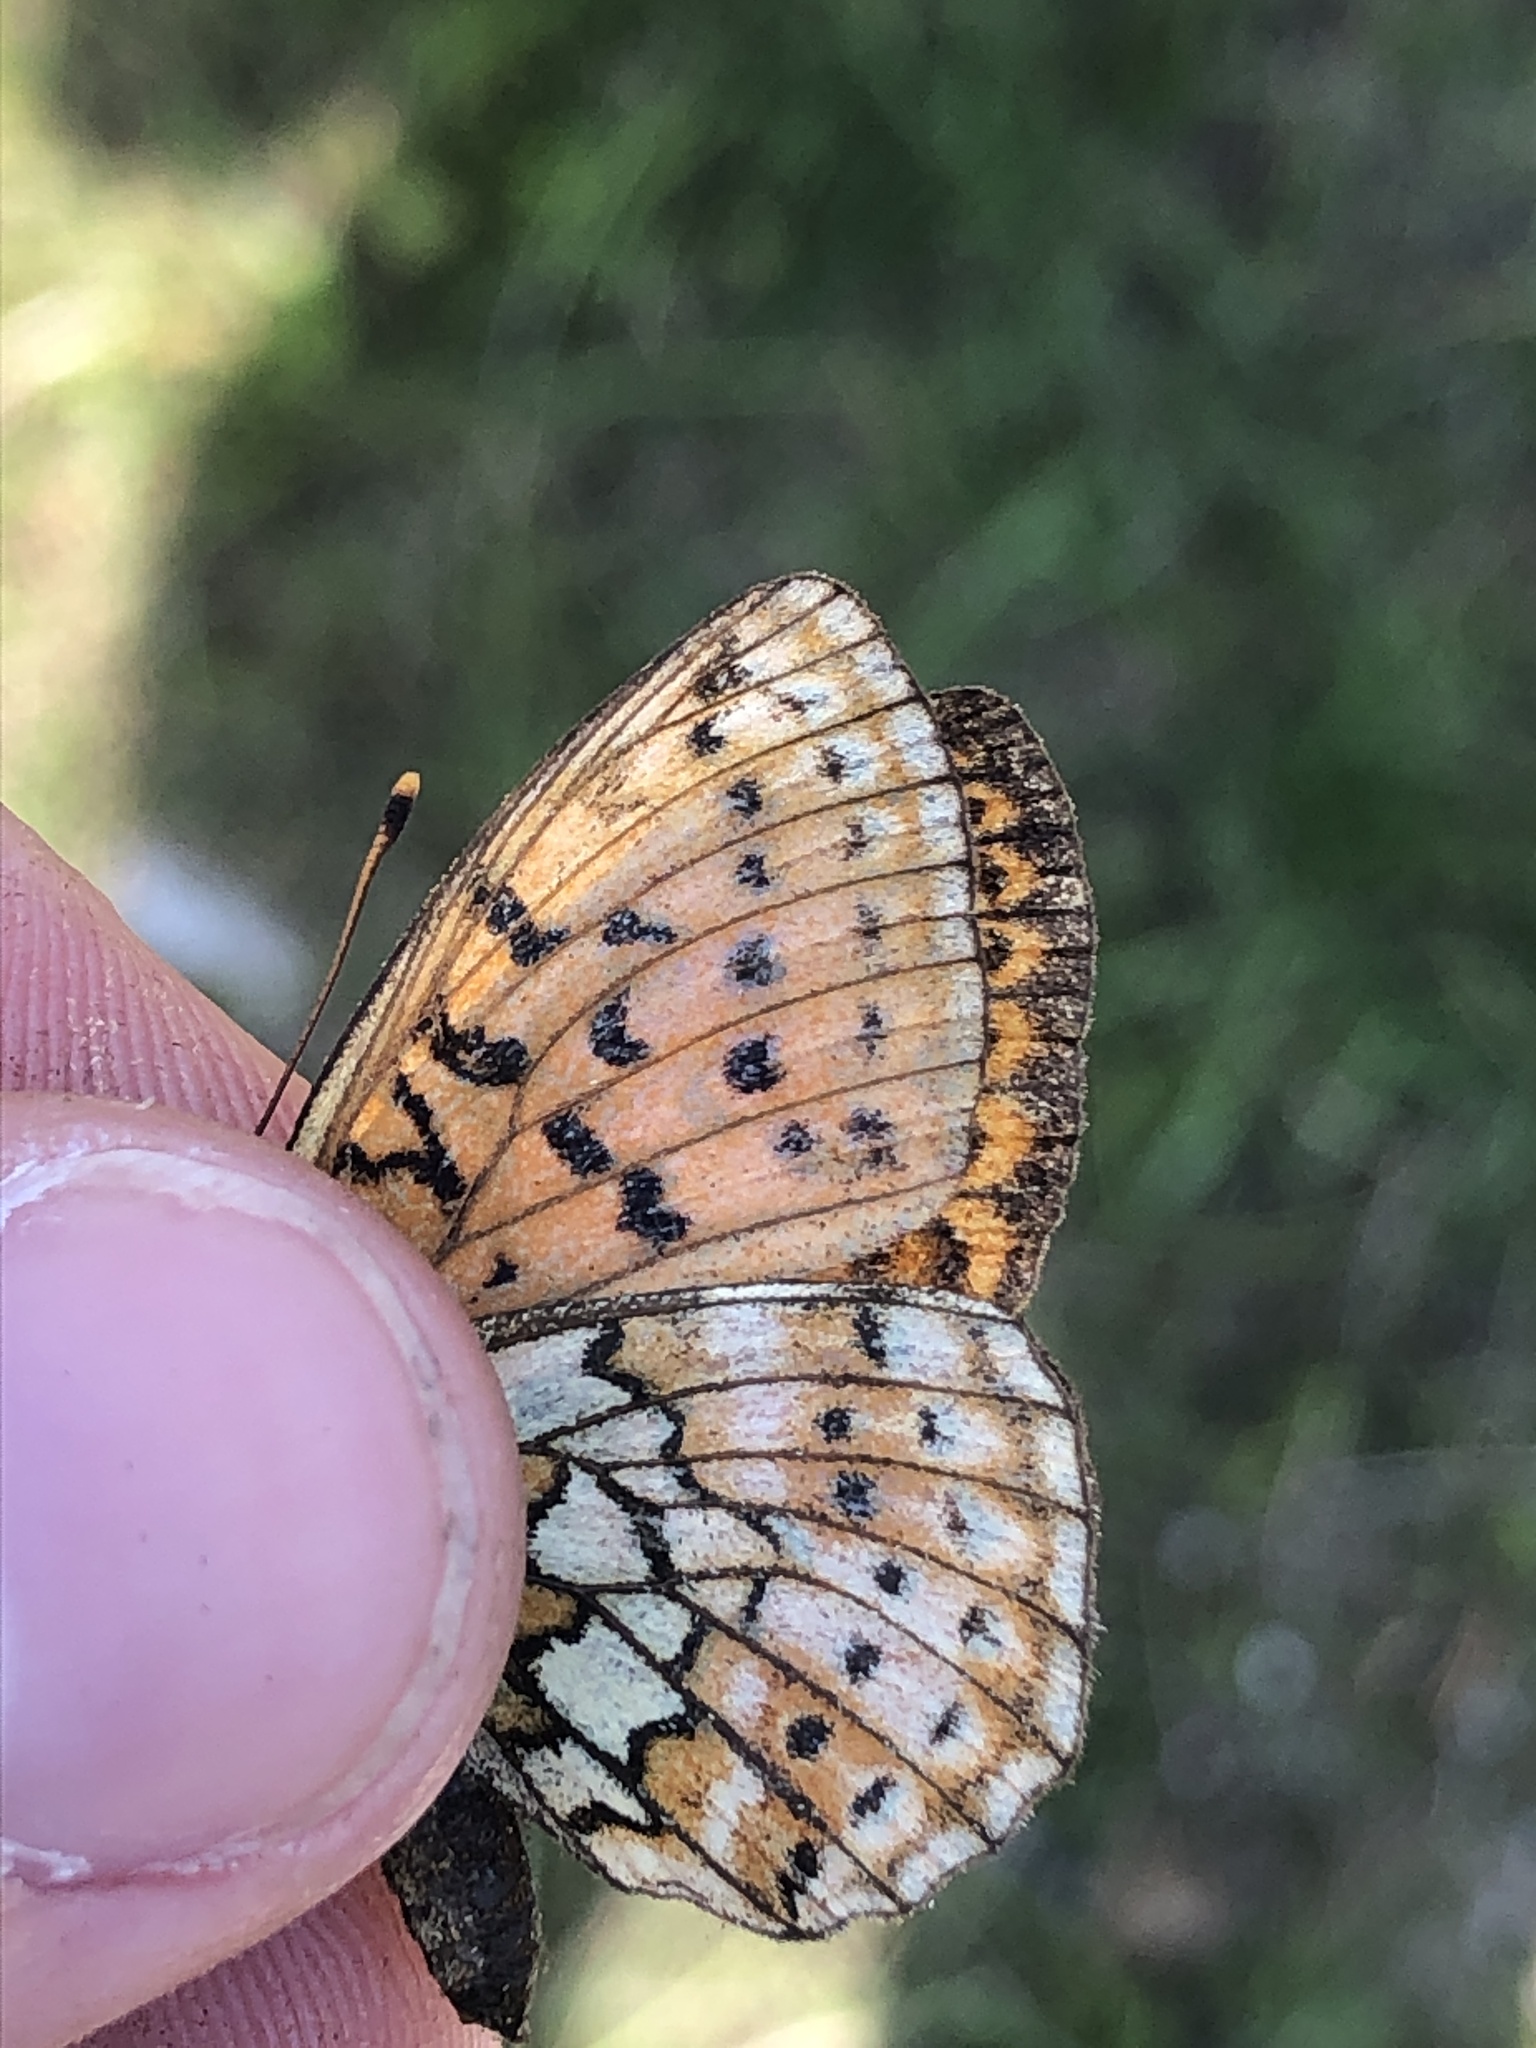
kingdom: Animalia
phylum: Arthropoda
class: Insecta
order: Lepidoptera
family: Nymphalidae
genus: Brenthis
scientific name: Brenthis hecate
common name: Twin-spot fritillary
